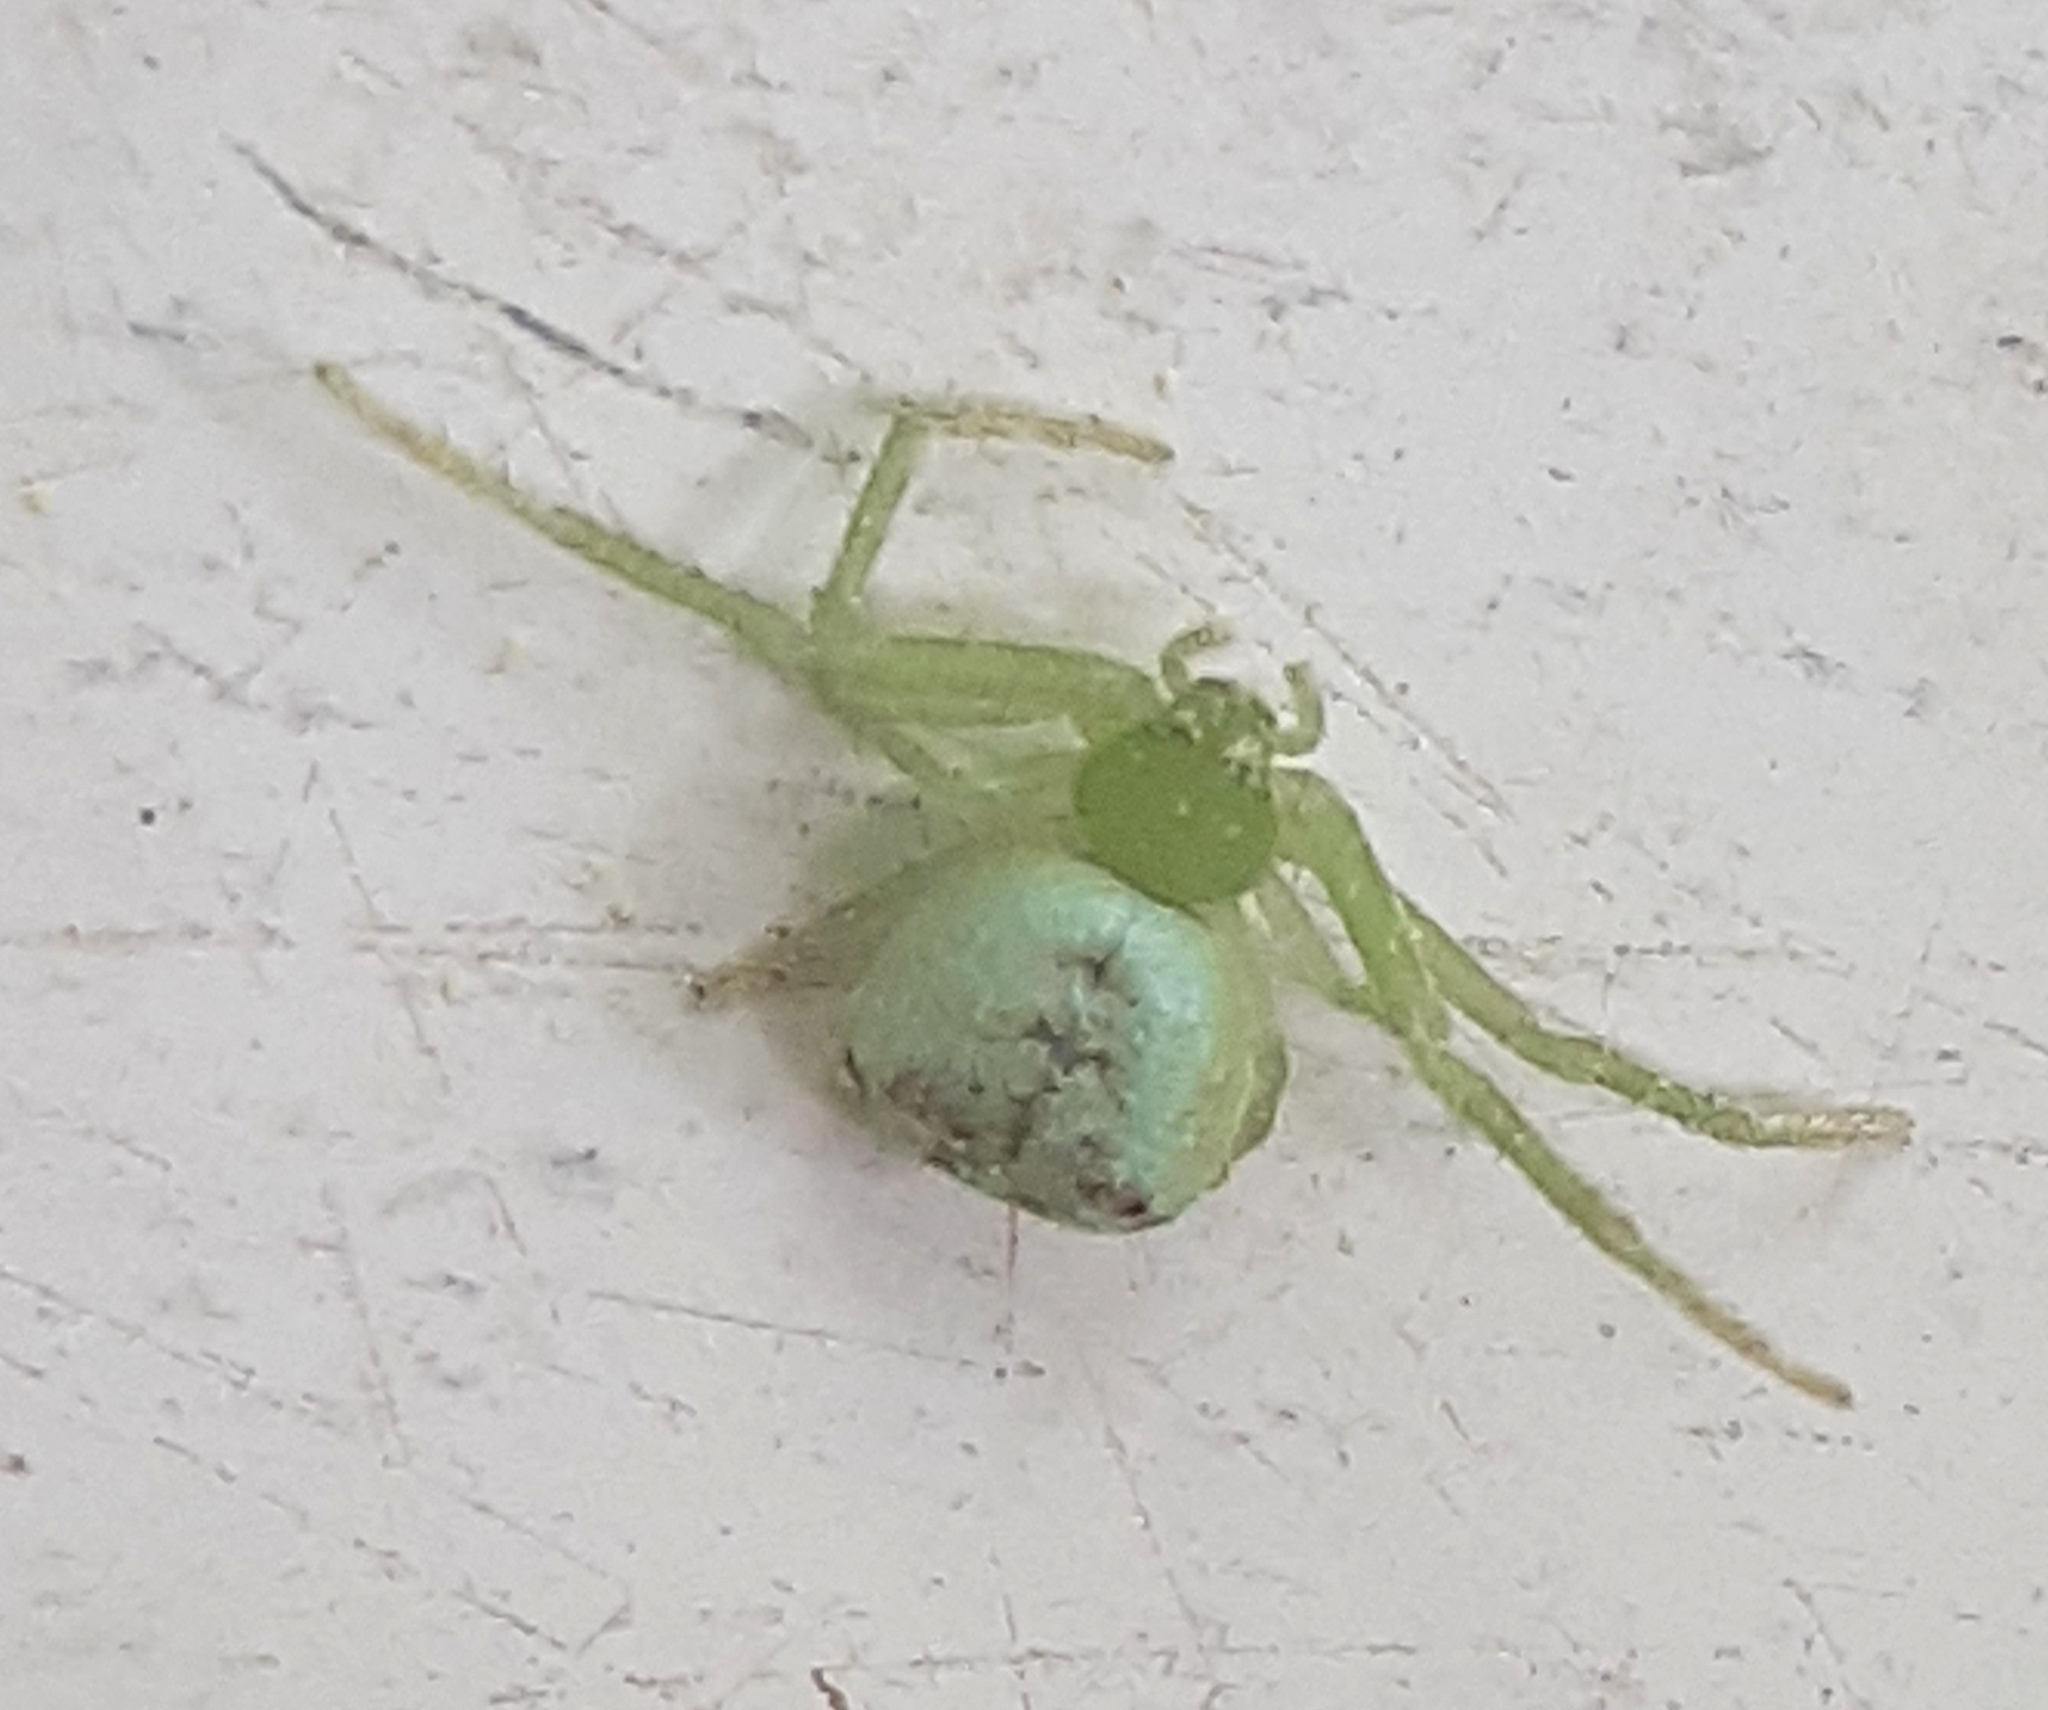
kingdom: Animalia
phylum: Arthropoda
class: Arachnida
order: Araneae
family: Thomisidae
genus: Ebrechtella
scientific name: Ebrechtella tricuspidata
